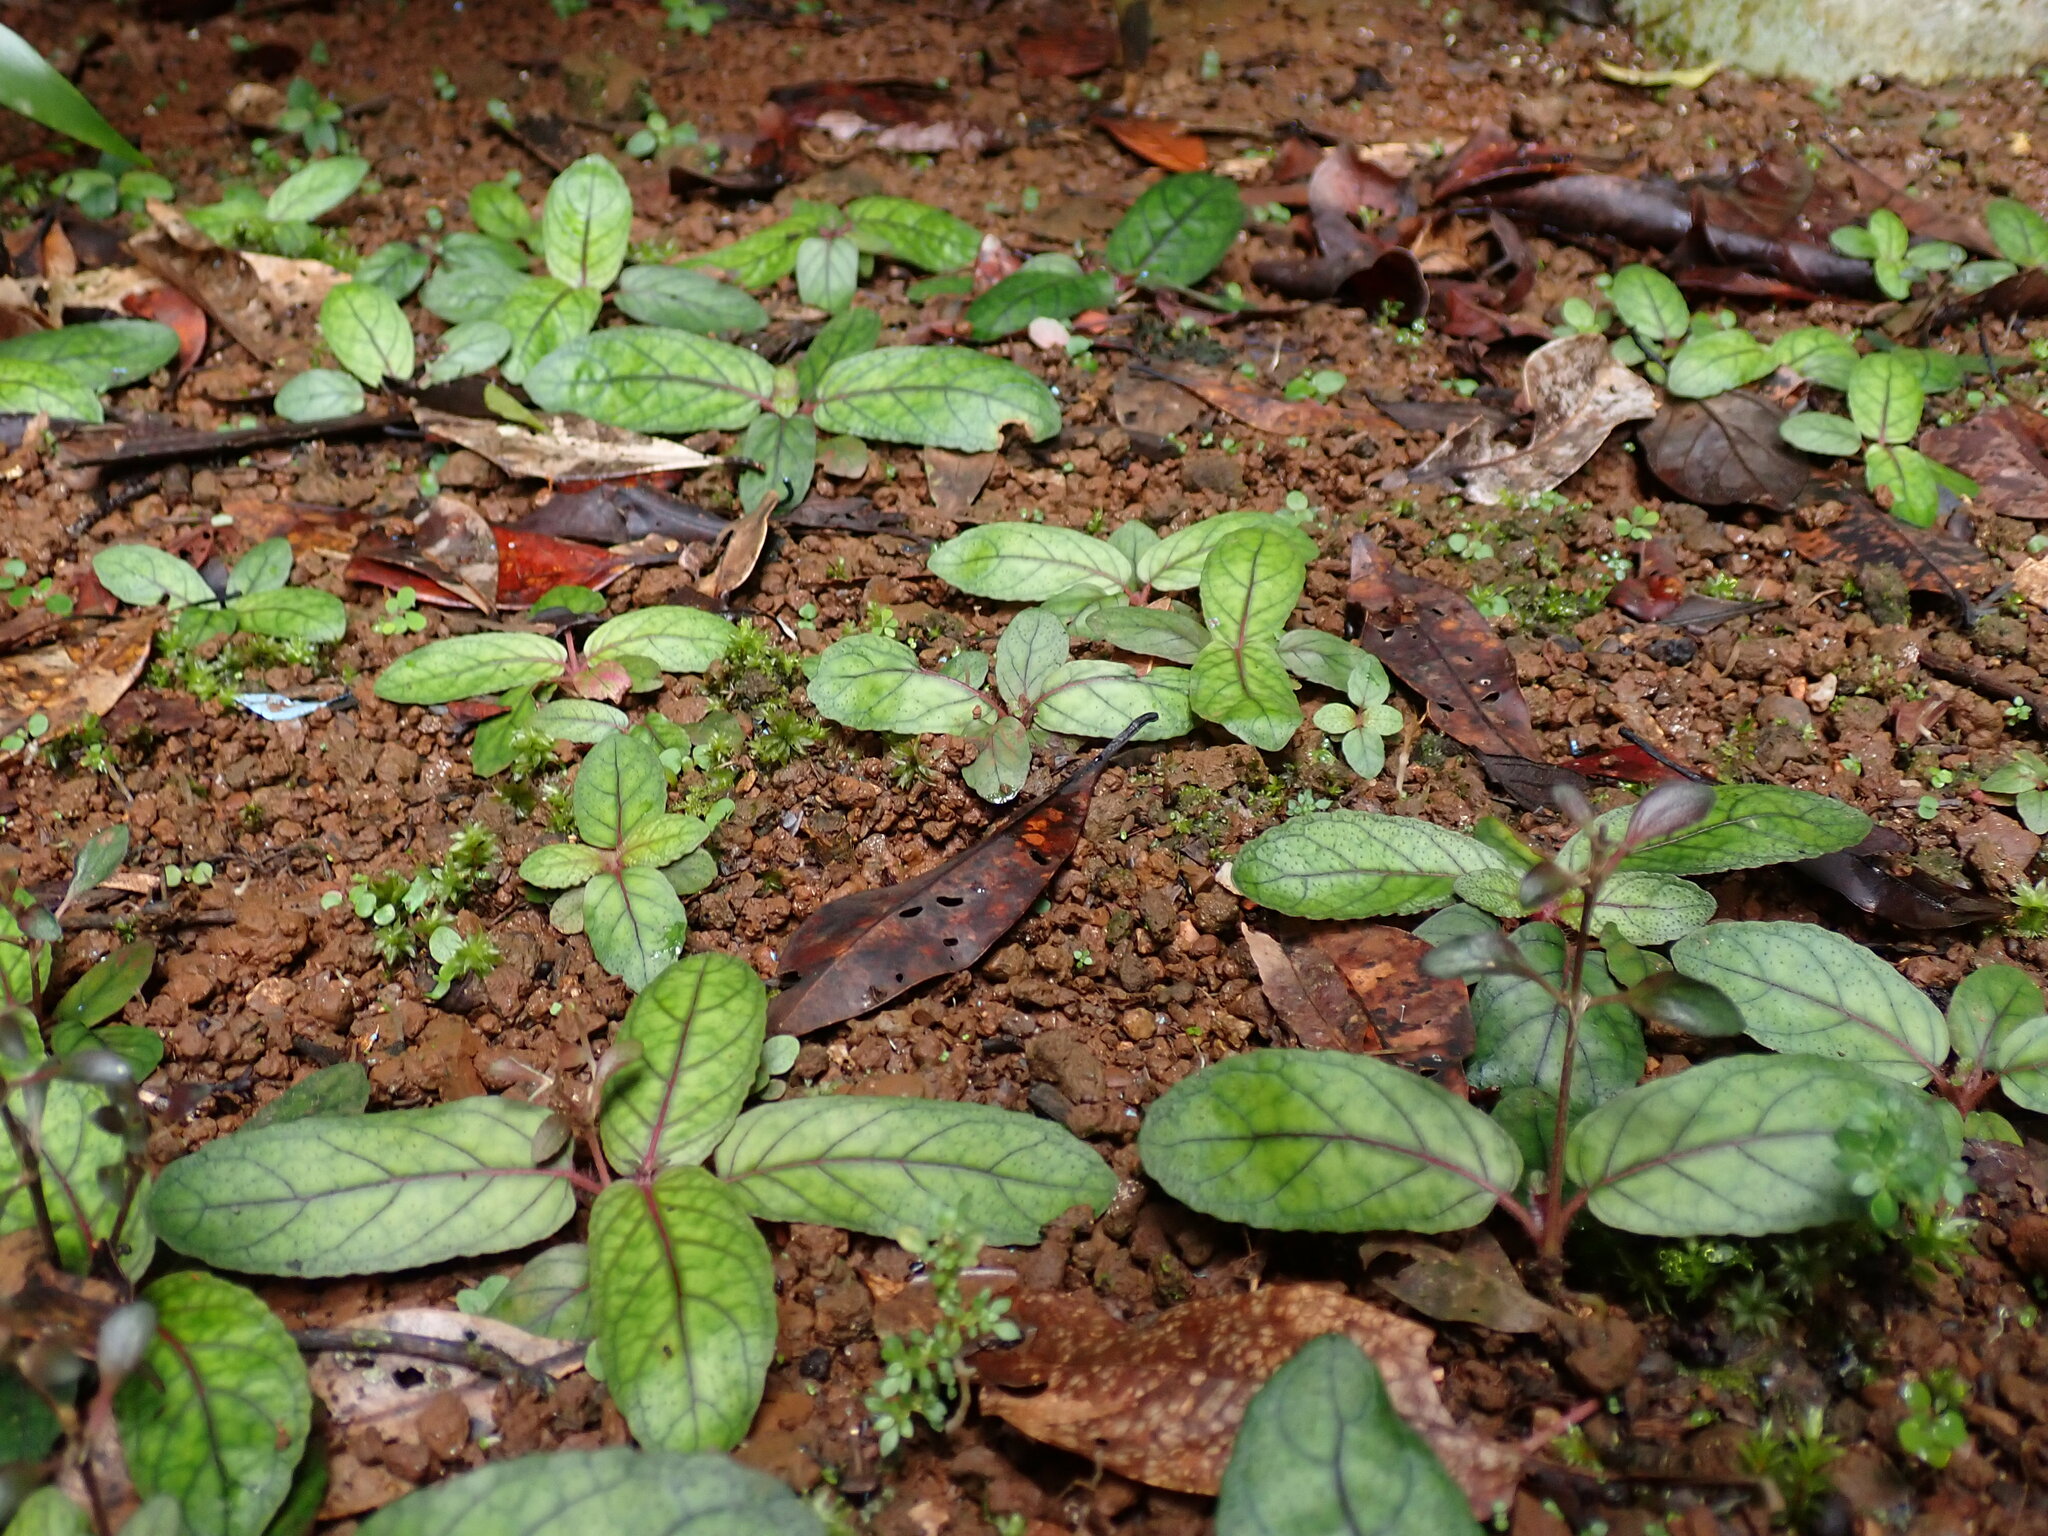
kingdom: Plantae
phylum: Tracheophyta
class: Magnoliopsida
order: Lamiales
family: Acanthaceae
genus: Strobilanthes
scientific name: Strobilanthes reptans
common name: Acanthaceae
